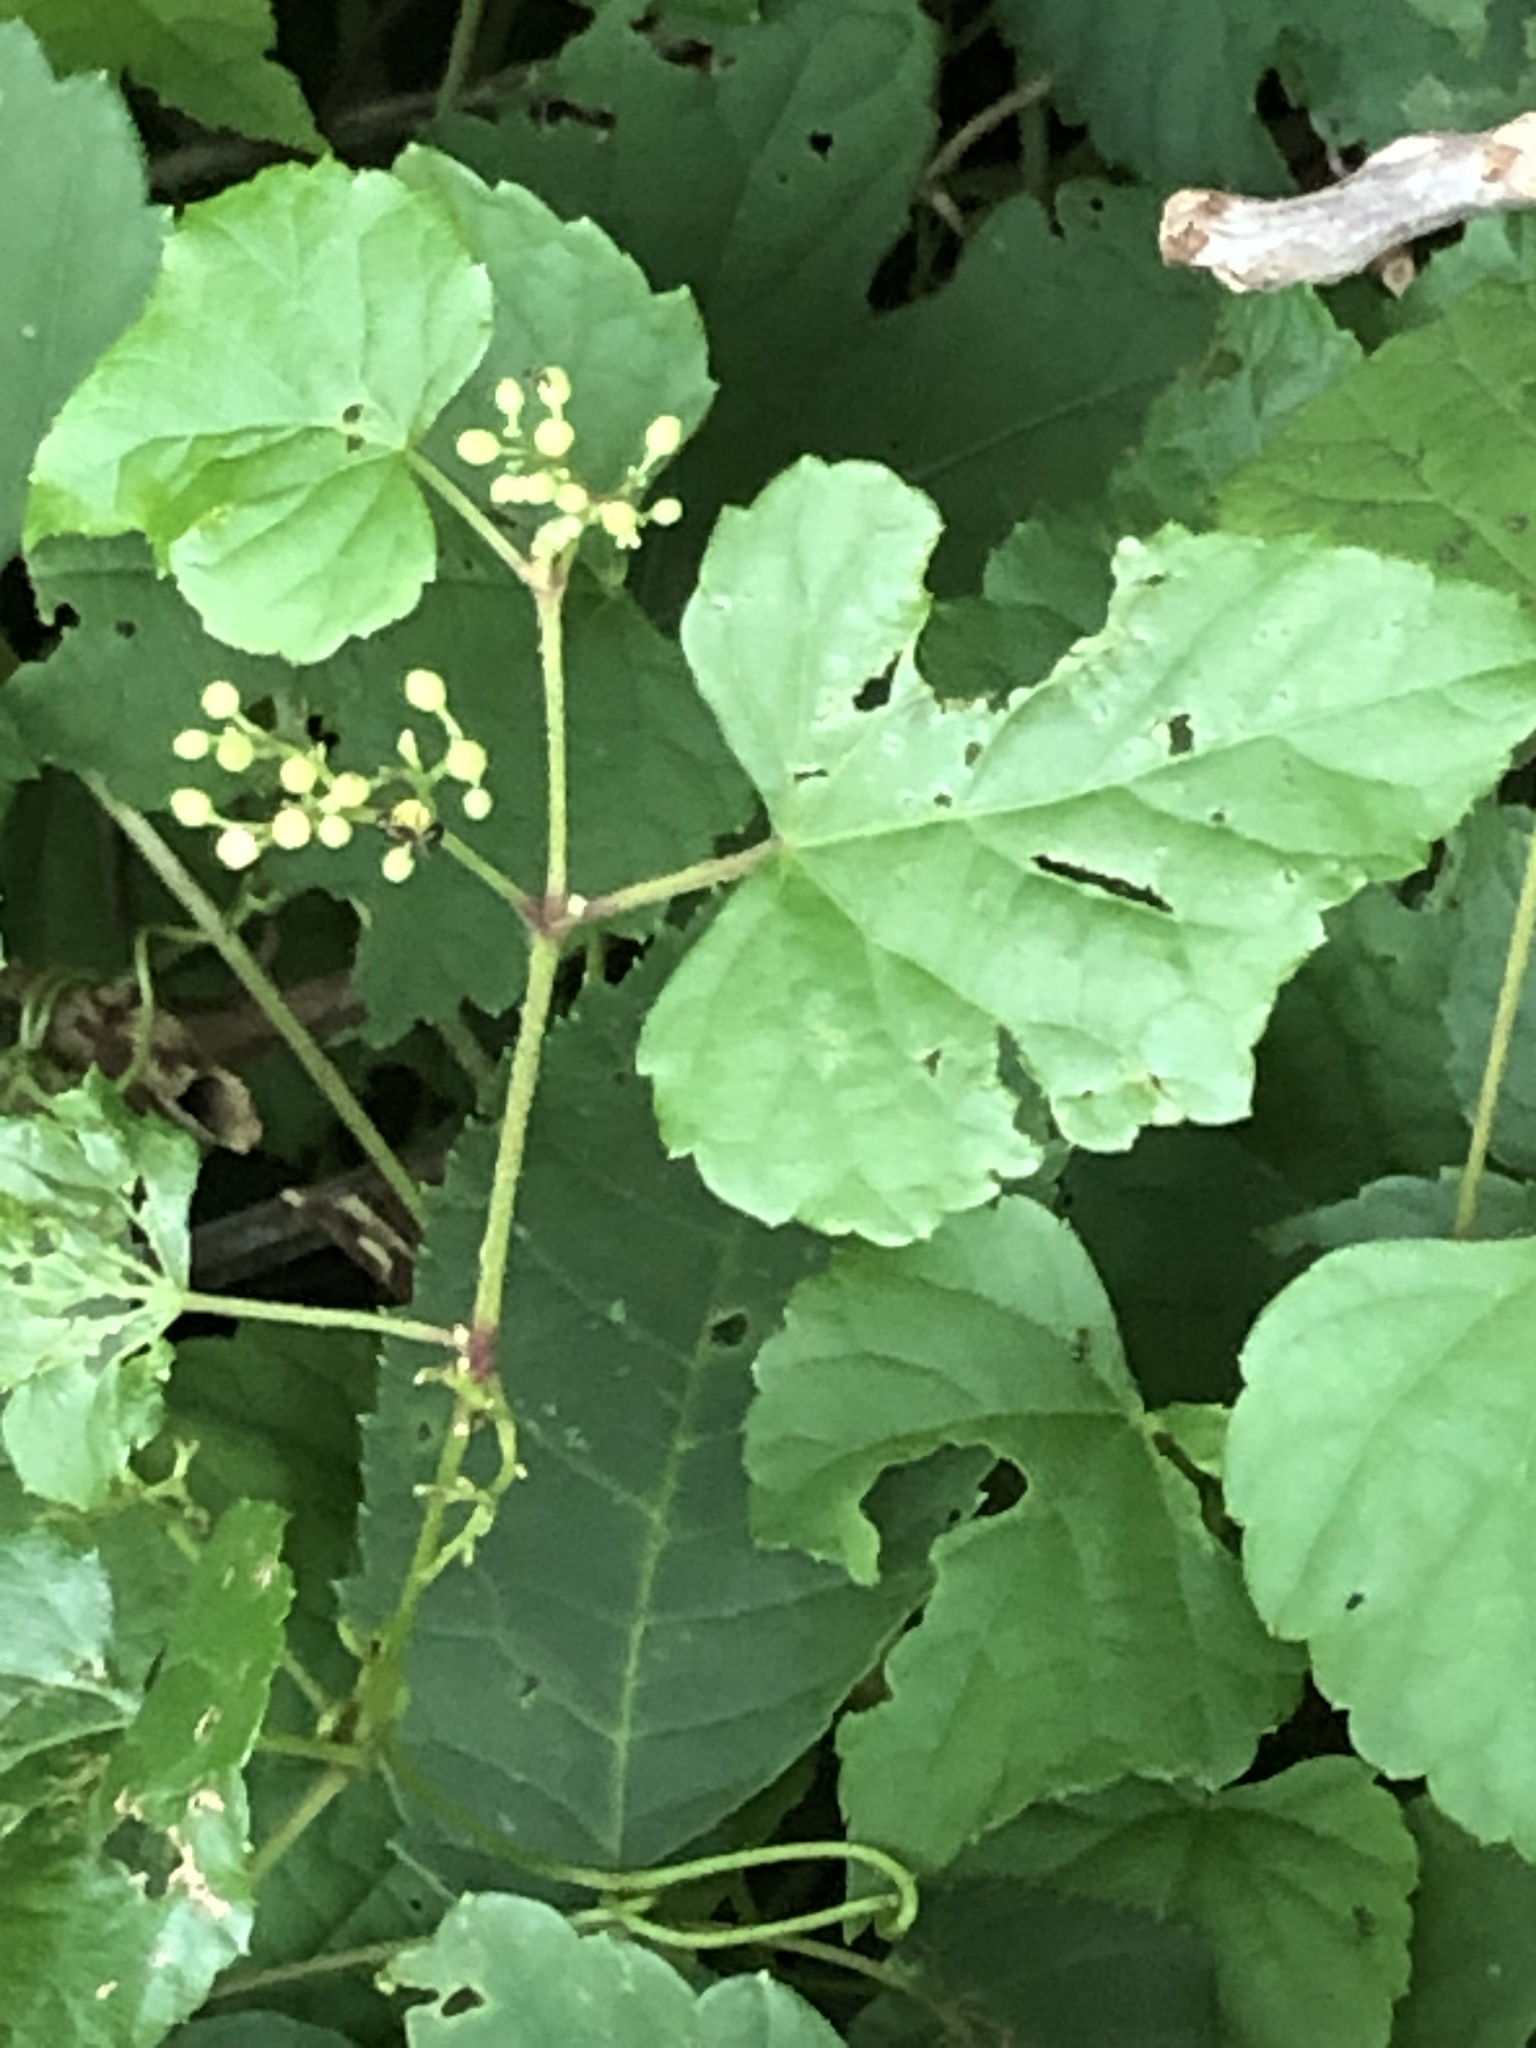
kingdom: Plantae
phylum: Tracheophyta
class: Magnoliopsida
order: Vitales
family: Vitaceae
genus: Ampelopsis
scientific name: Ampelopsis glandulosa
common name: Amur peppervine
